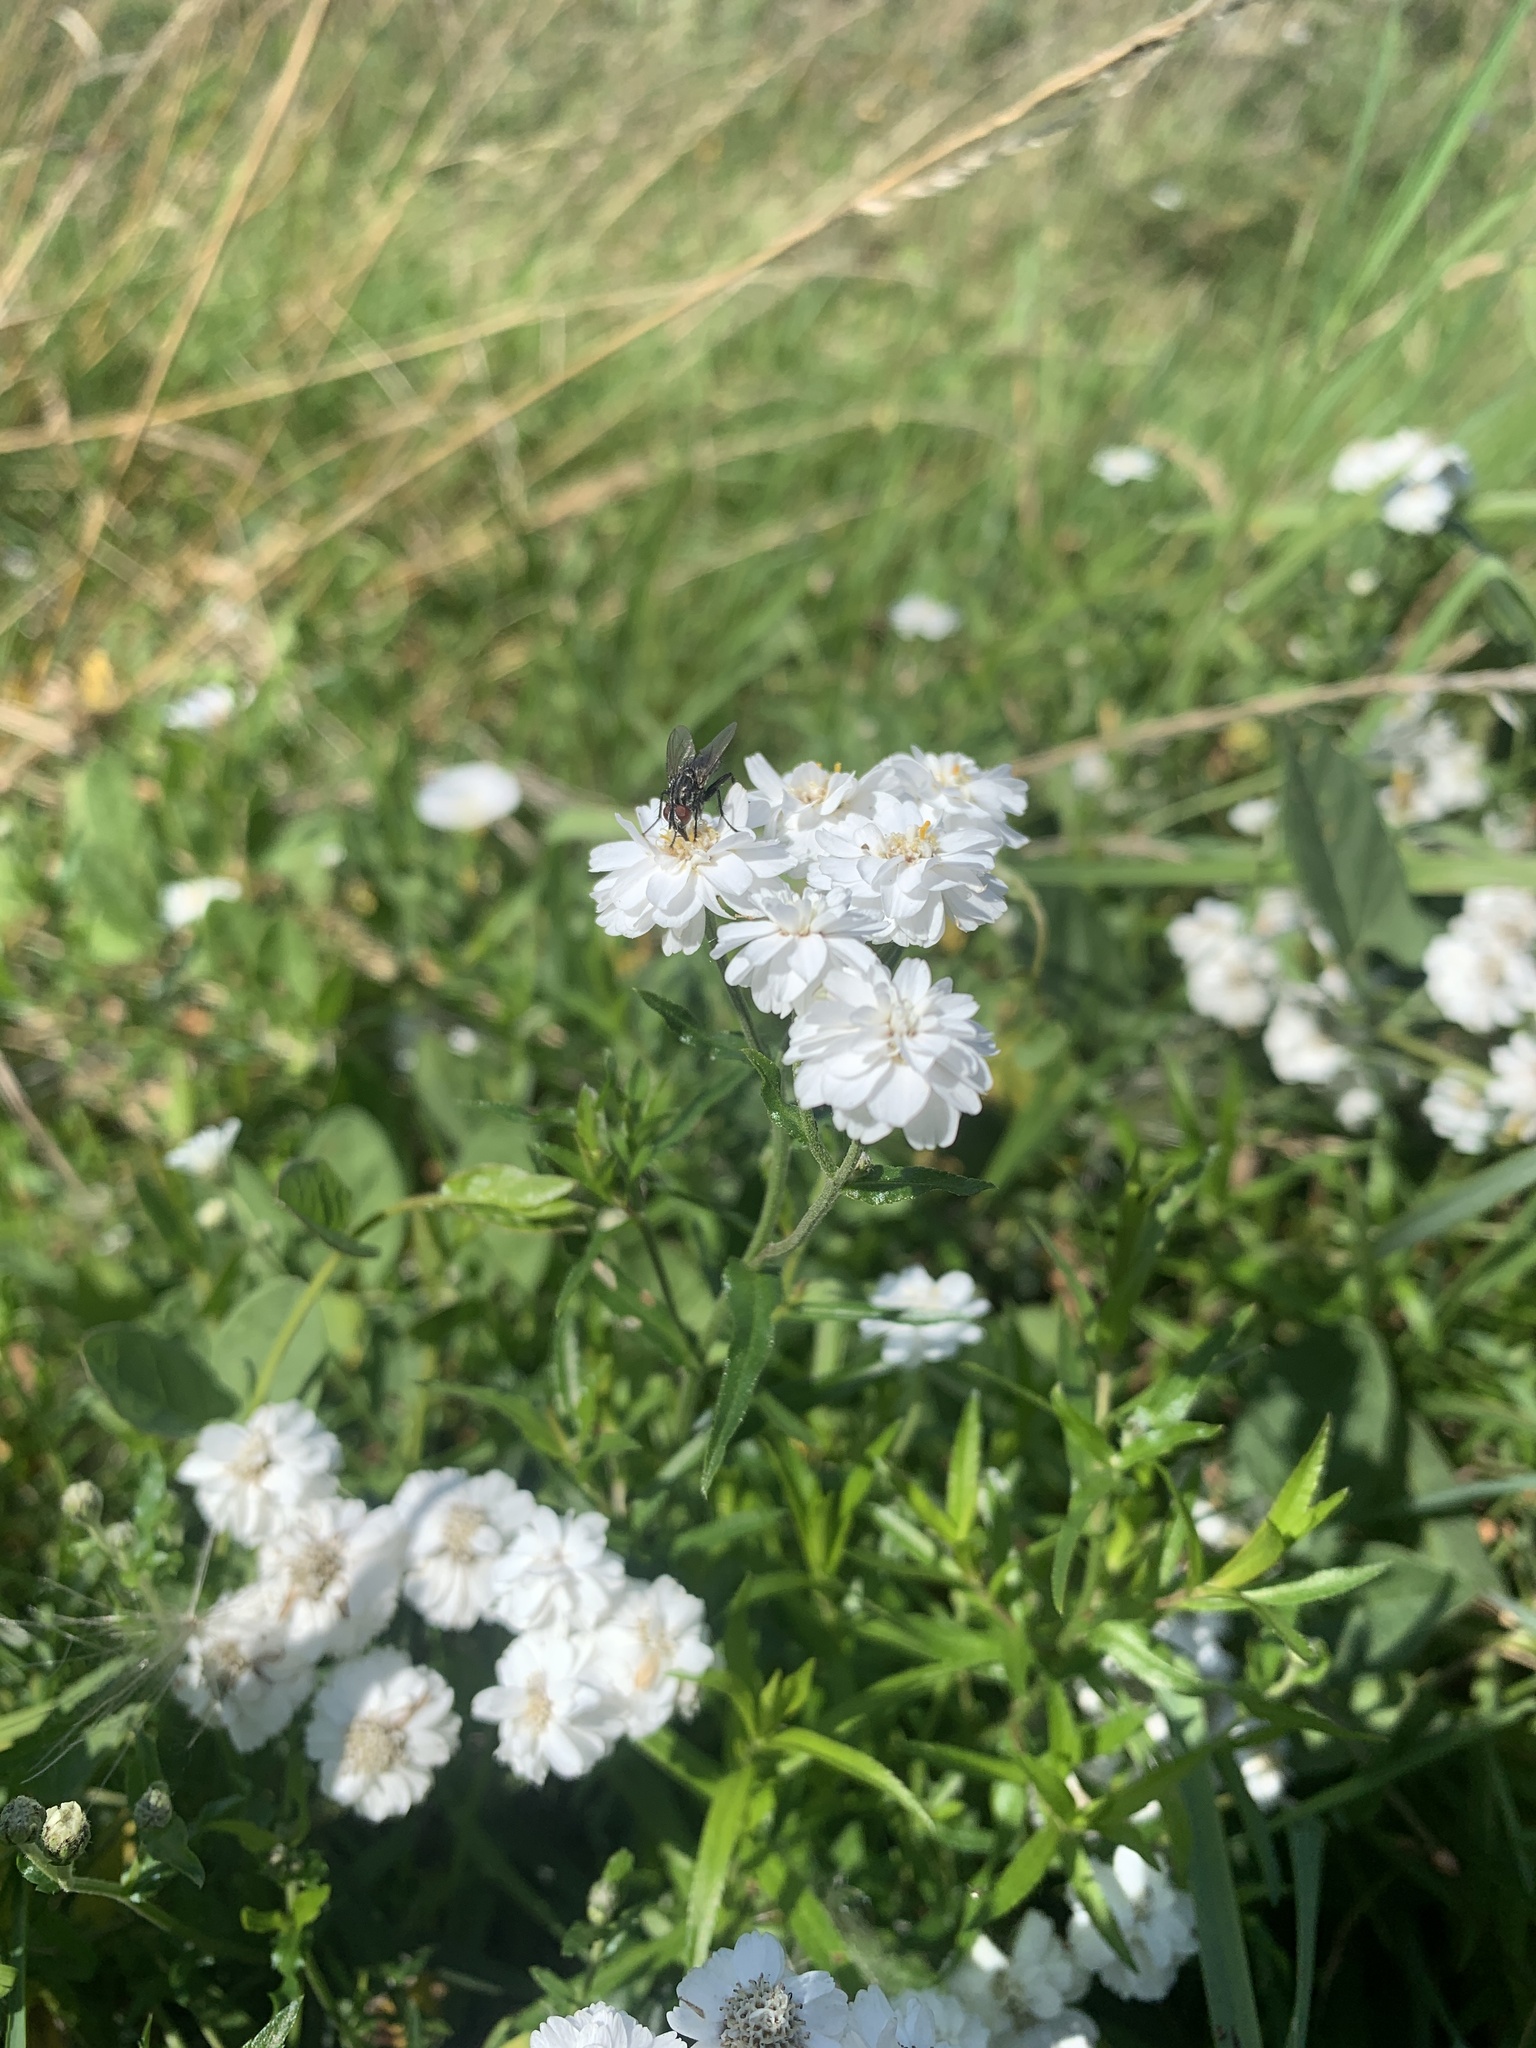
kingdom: Plantae
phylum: Tracheophyta
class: Magnoliopsida
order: Asterales
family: Asteraceae
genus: Achillea
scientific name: Achillea millefolium
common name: Yarrow
